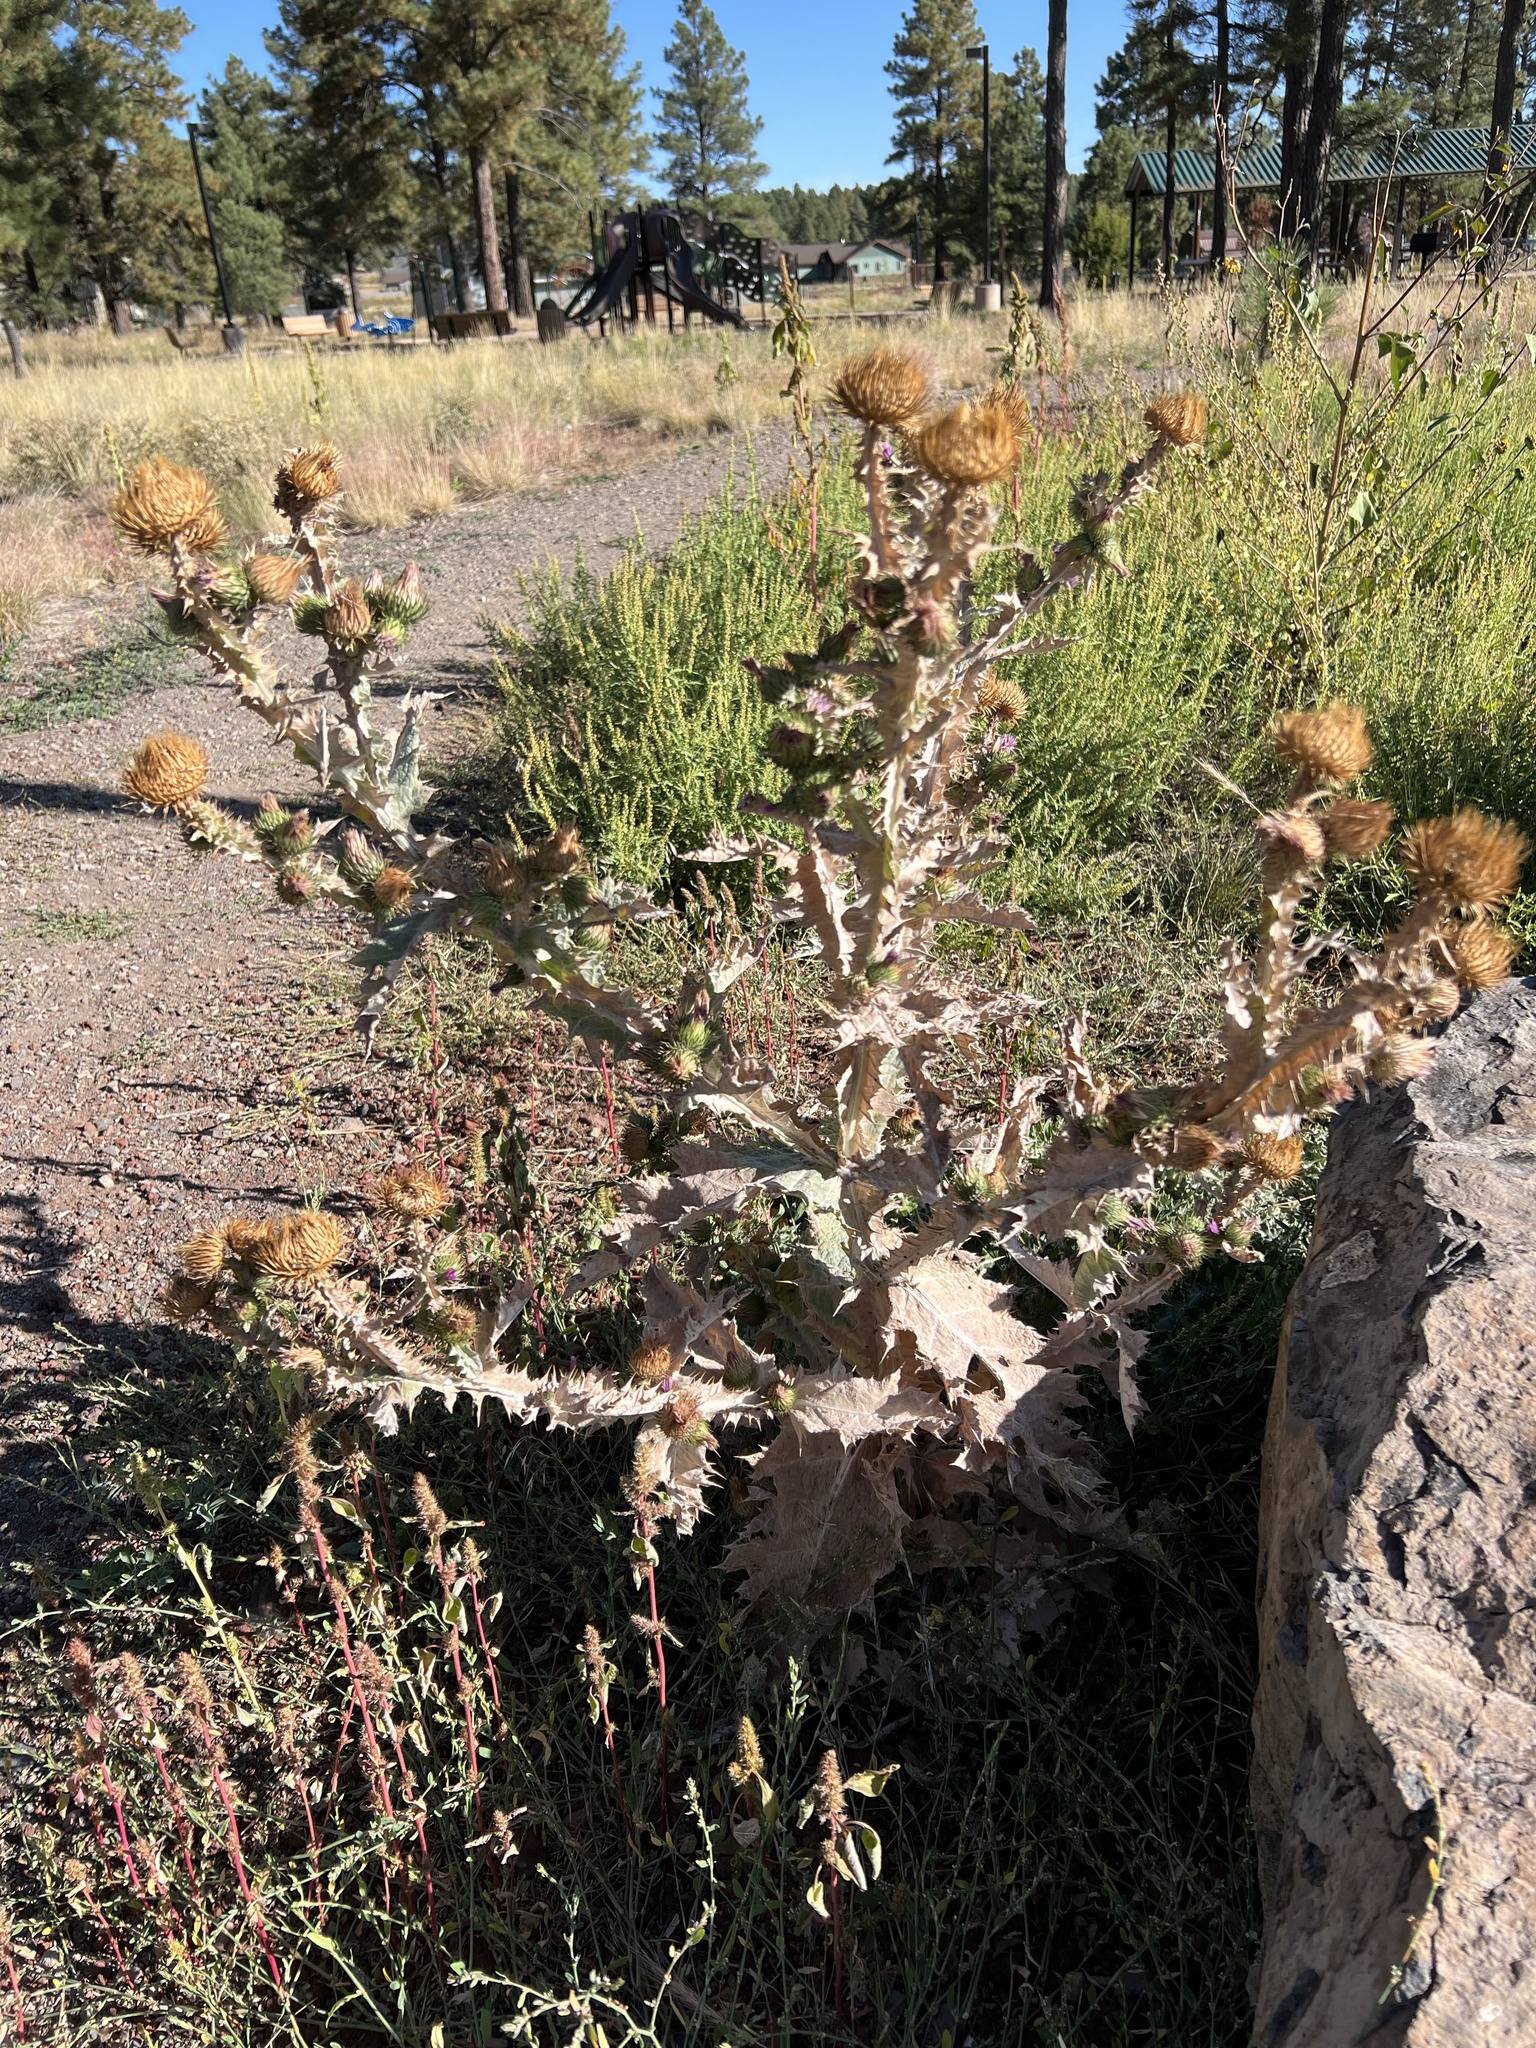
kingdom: Plantae
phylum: Tracheophyta
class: Magnoliopsida
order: Asterales
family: Asteraceae
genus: Onopordum
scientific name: Onopordum acanthium
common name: Scotch thistle
